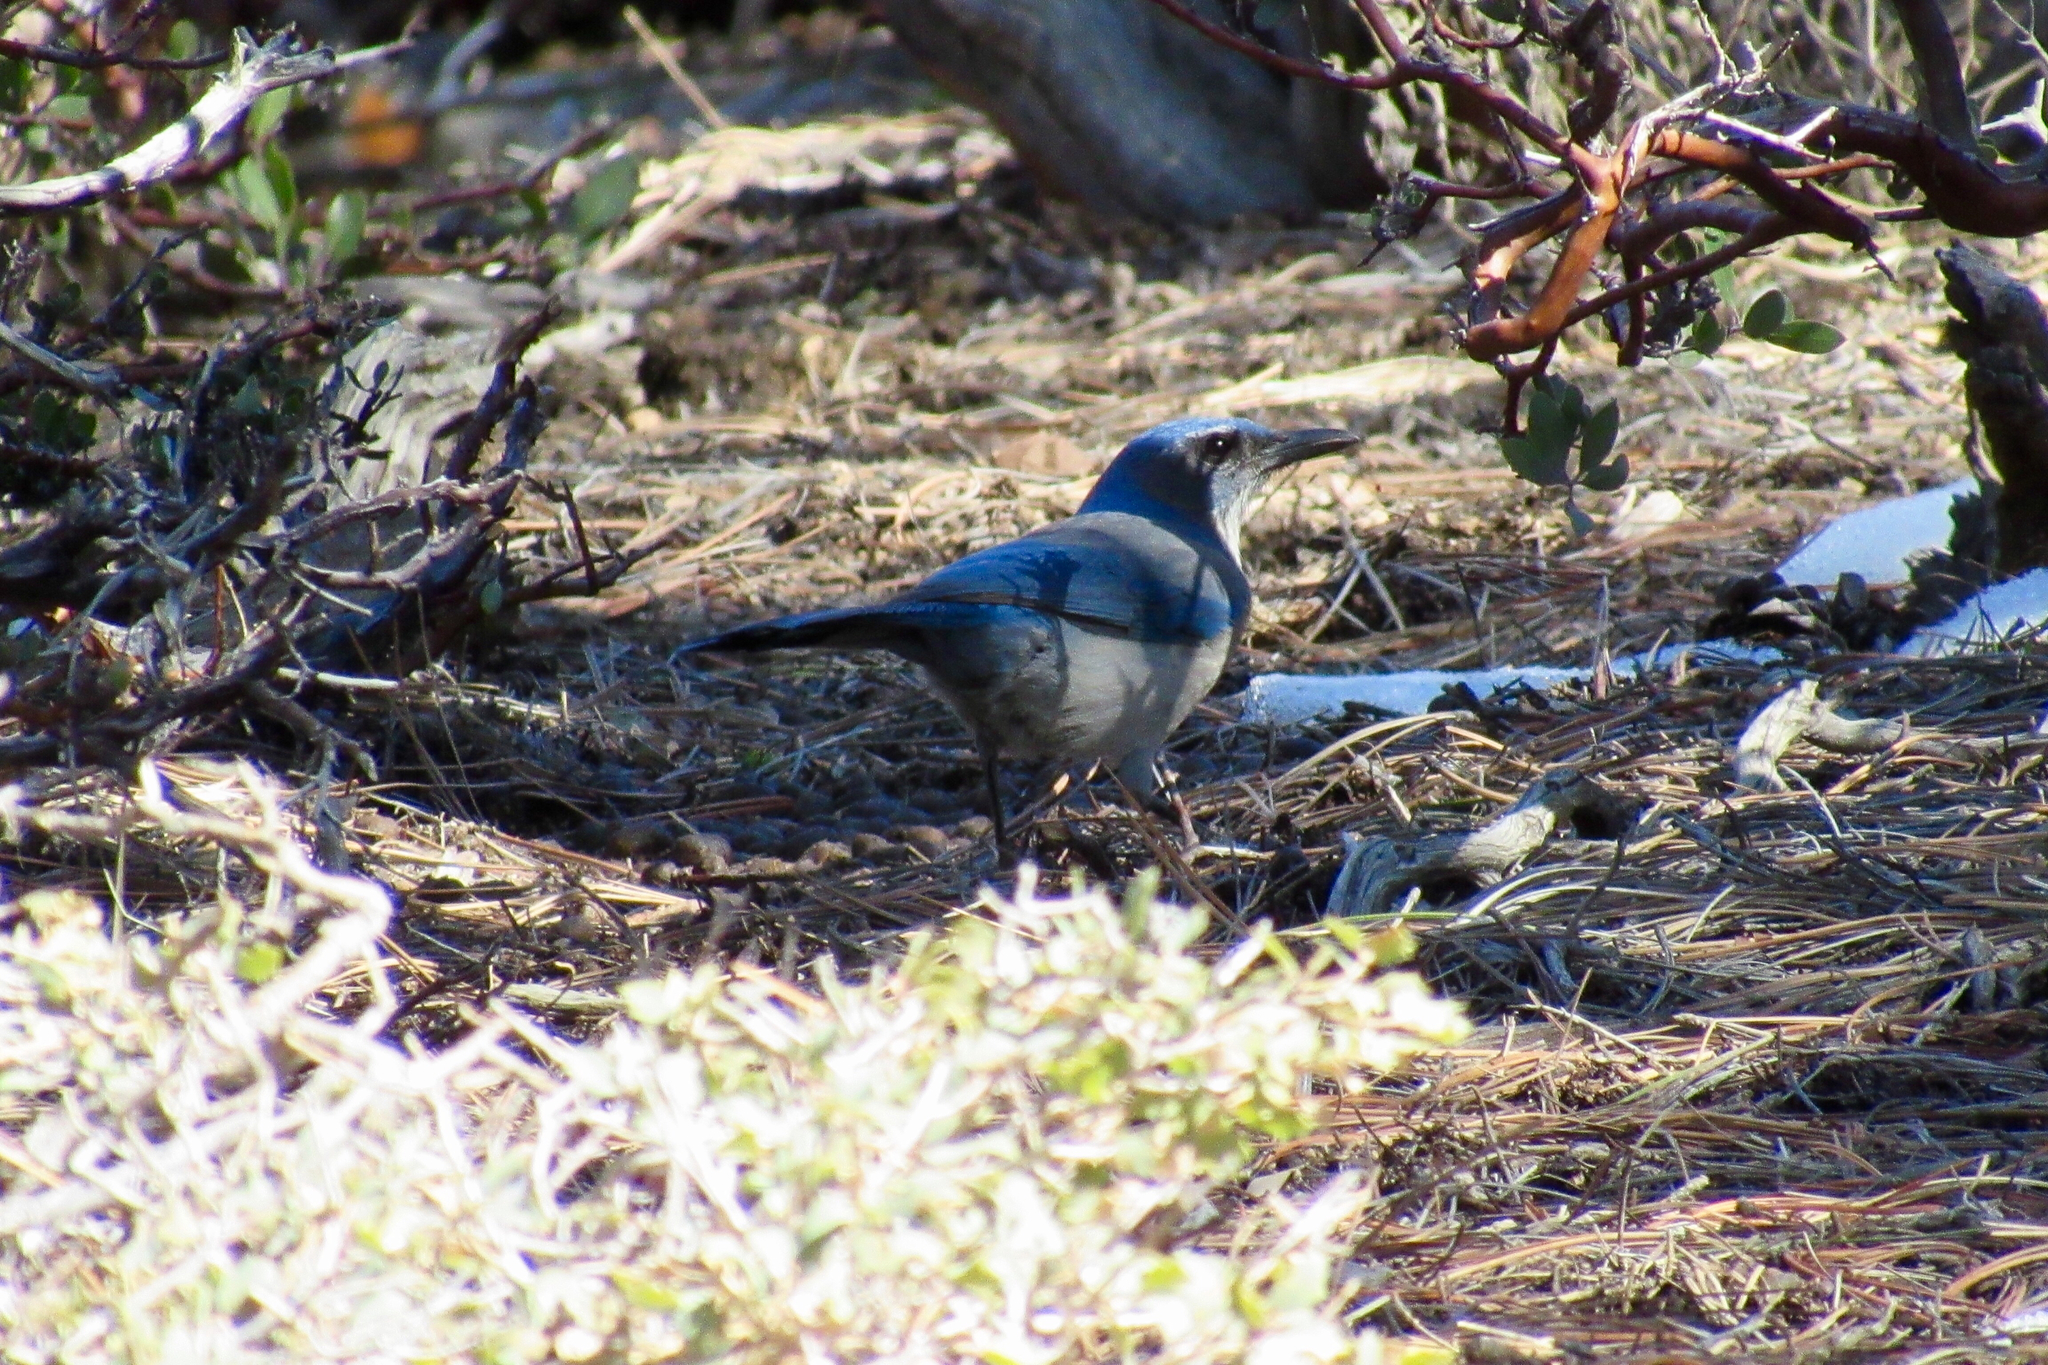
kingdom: Animalia
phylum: Chordata
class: Aves
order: Passeriformes
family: Corvidae
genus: Aphelocoma
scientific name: Aphelocoma woodhouseii
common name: Woodhouse's scrub-jay
